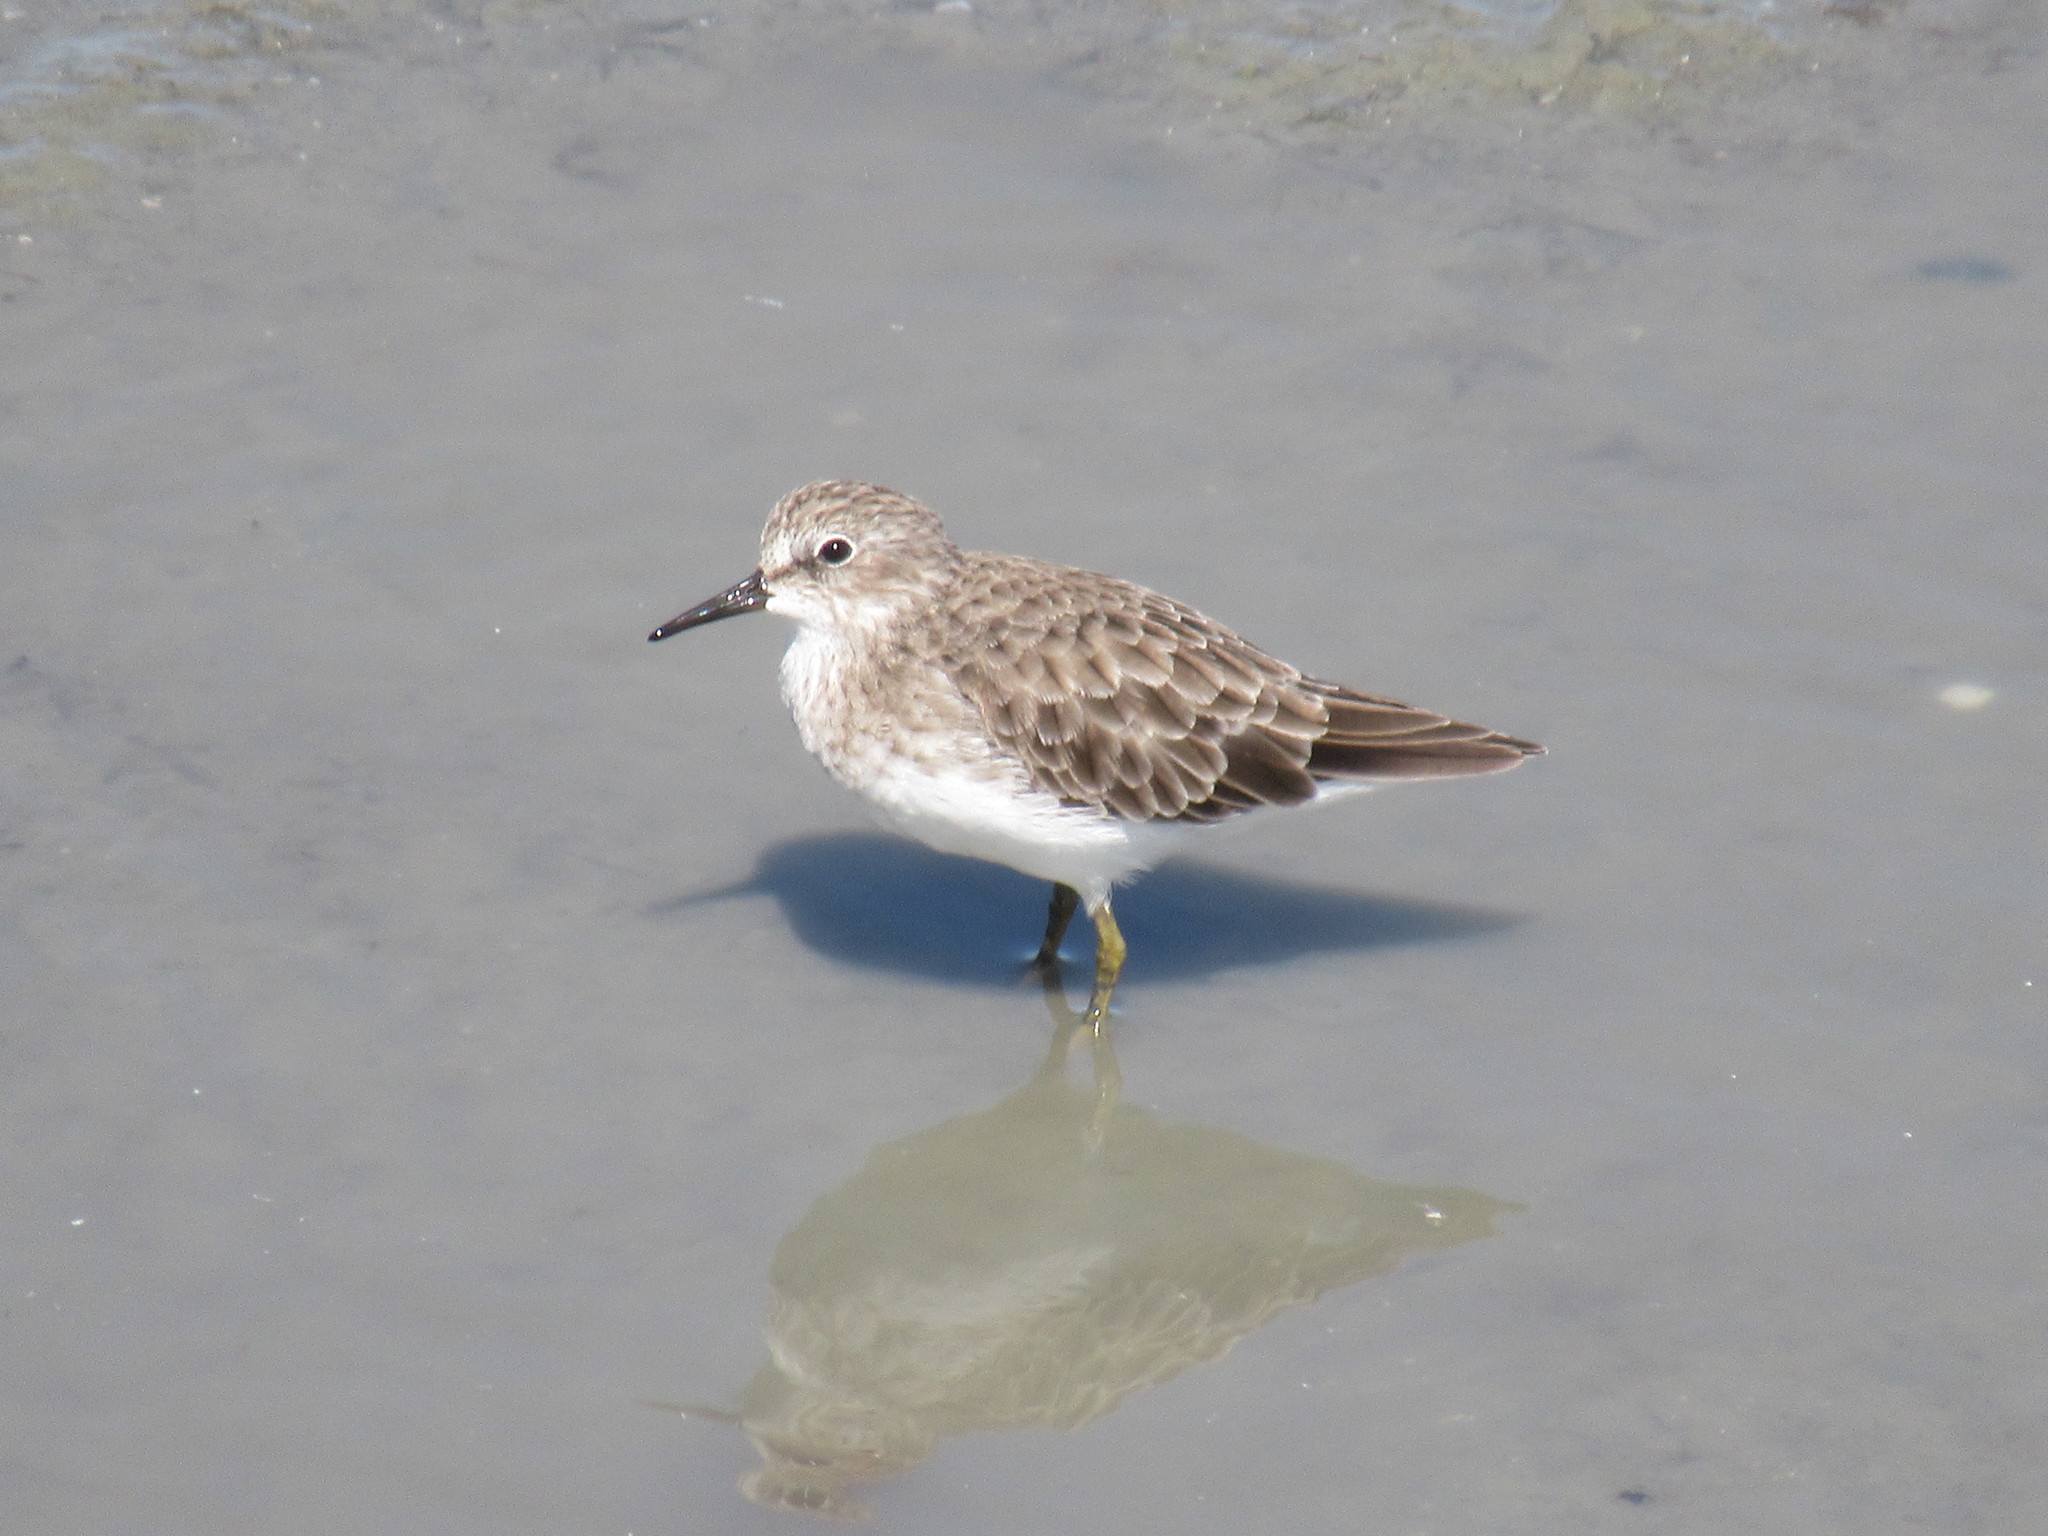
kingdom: Animalia
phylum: Chordata
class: Aves
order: Charadriiformes
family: Scolopacidae
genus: Calidris
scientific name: Calidris minutilla
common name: Least sandpiper
